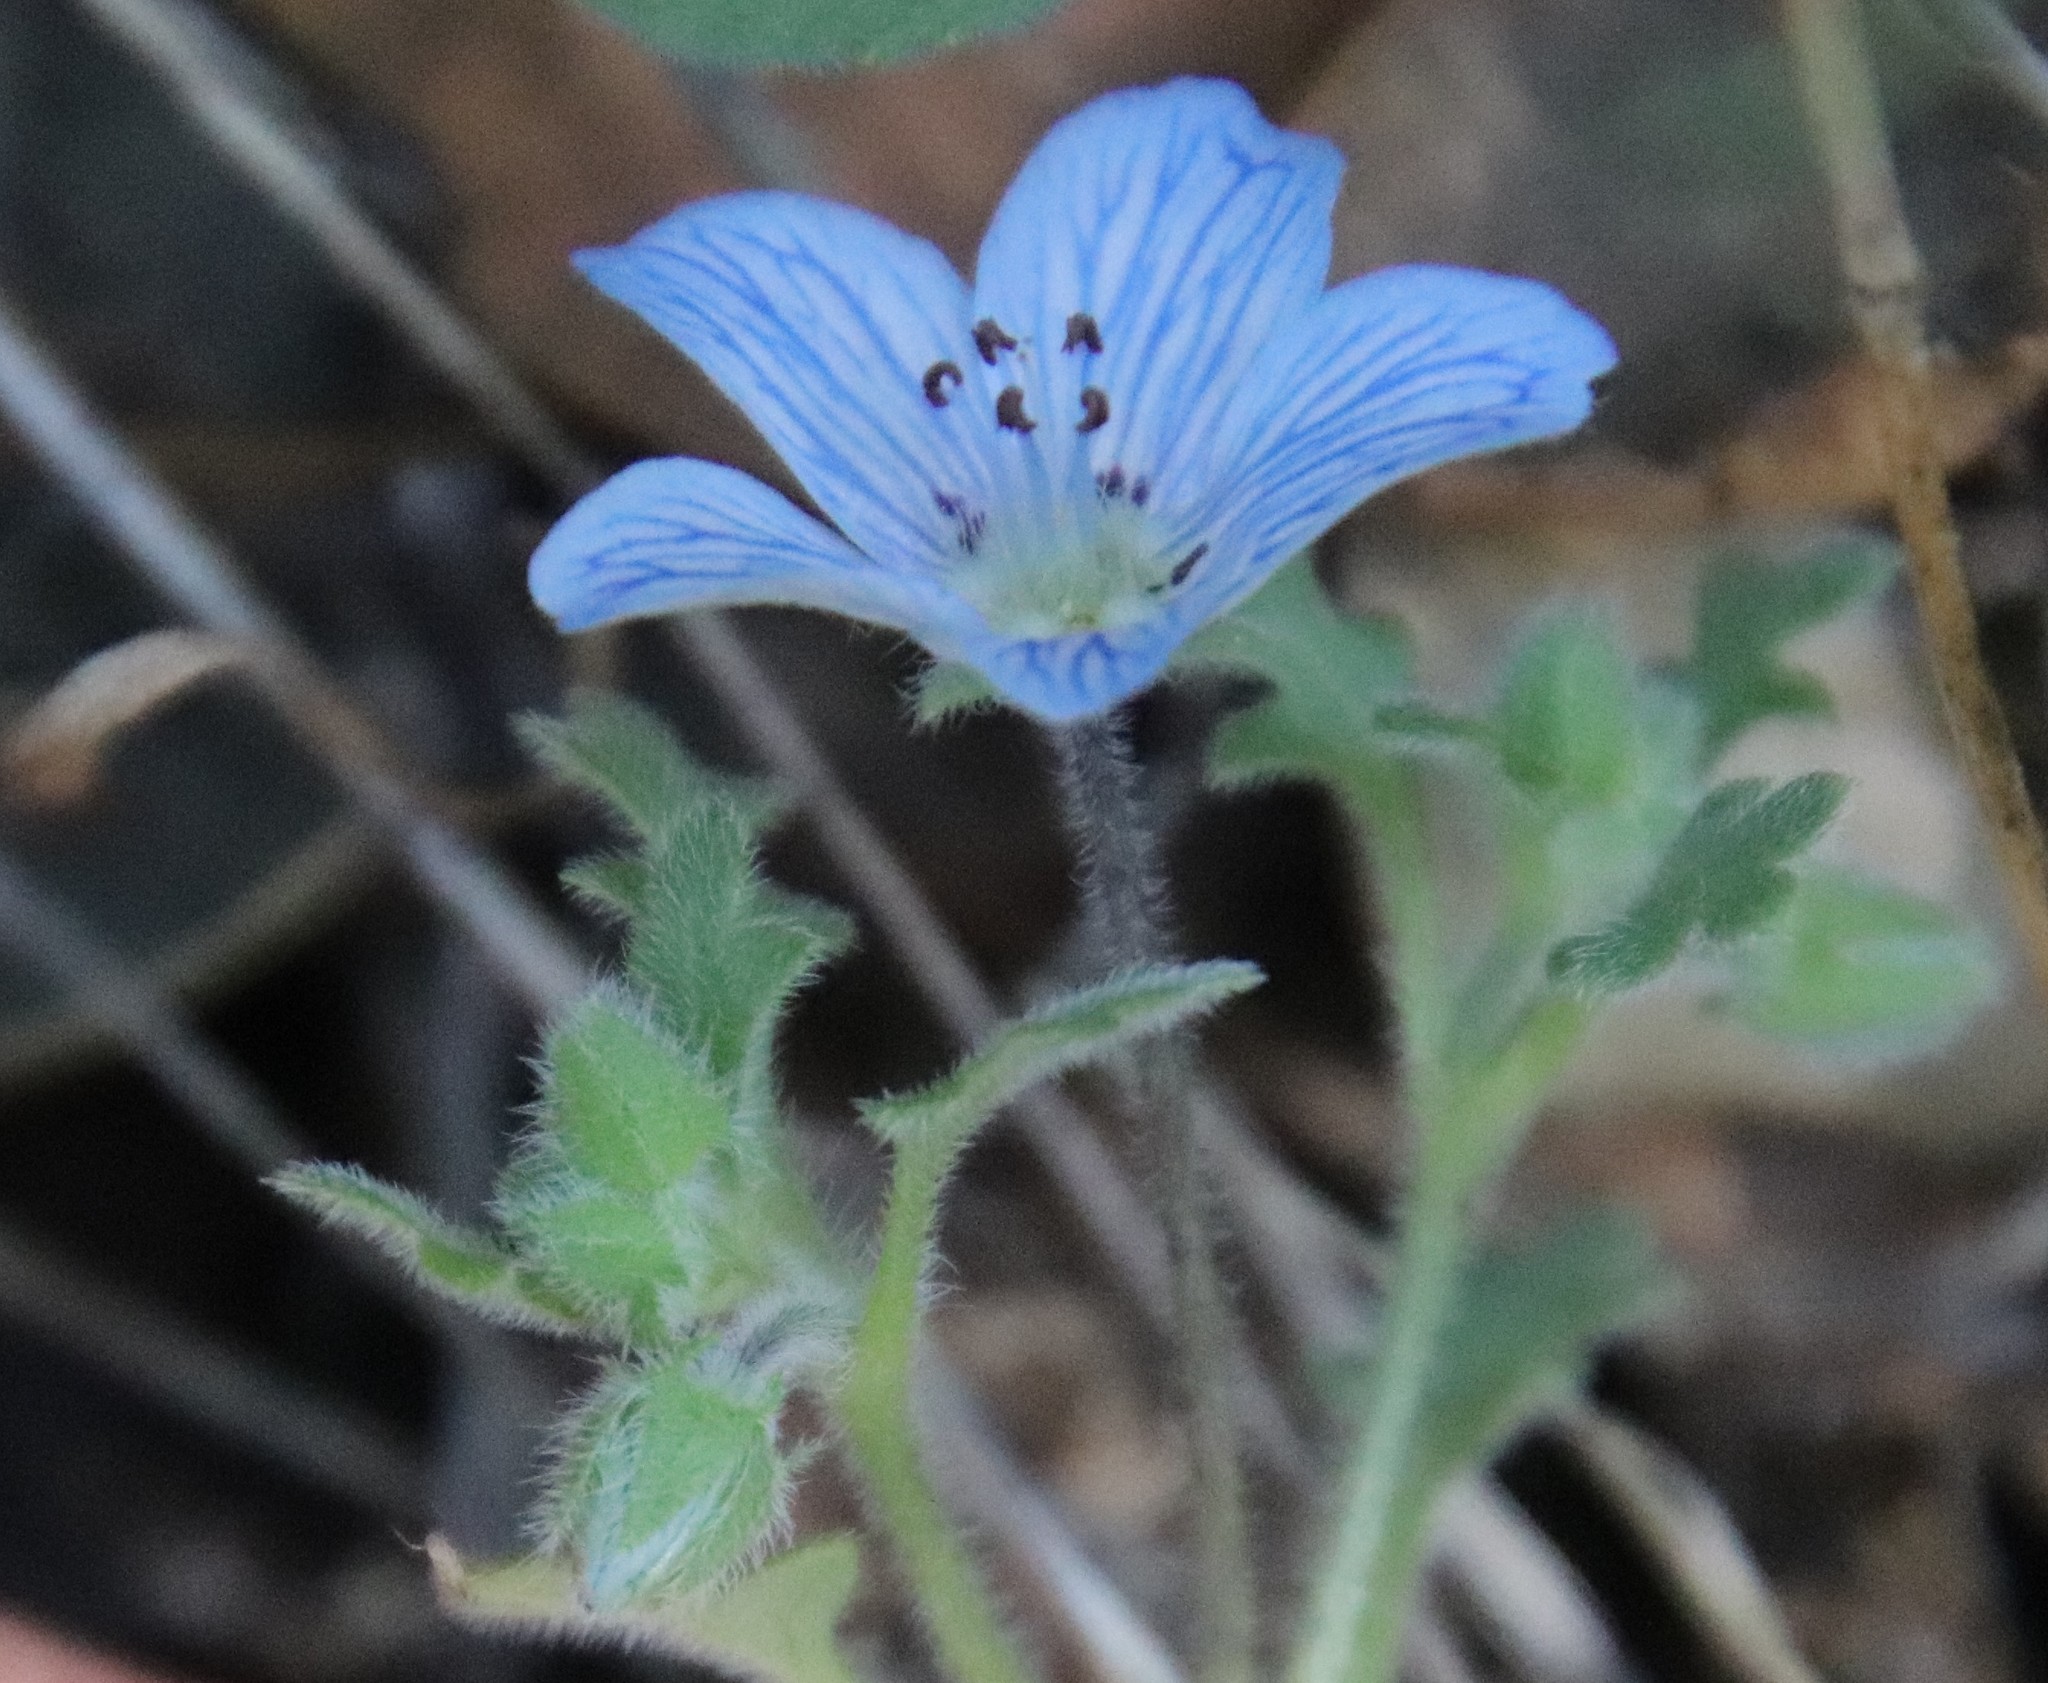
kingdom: Plantae
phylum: Tracheophyta
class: Magnoliopsida
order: Boraginales
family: Hydrophyllaceae
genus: Nemophila
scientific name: Nemophila menziesii
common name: Baby's-blue-eyes
